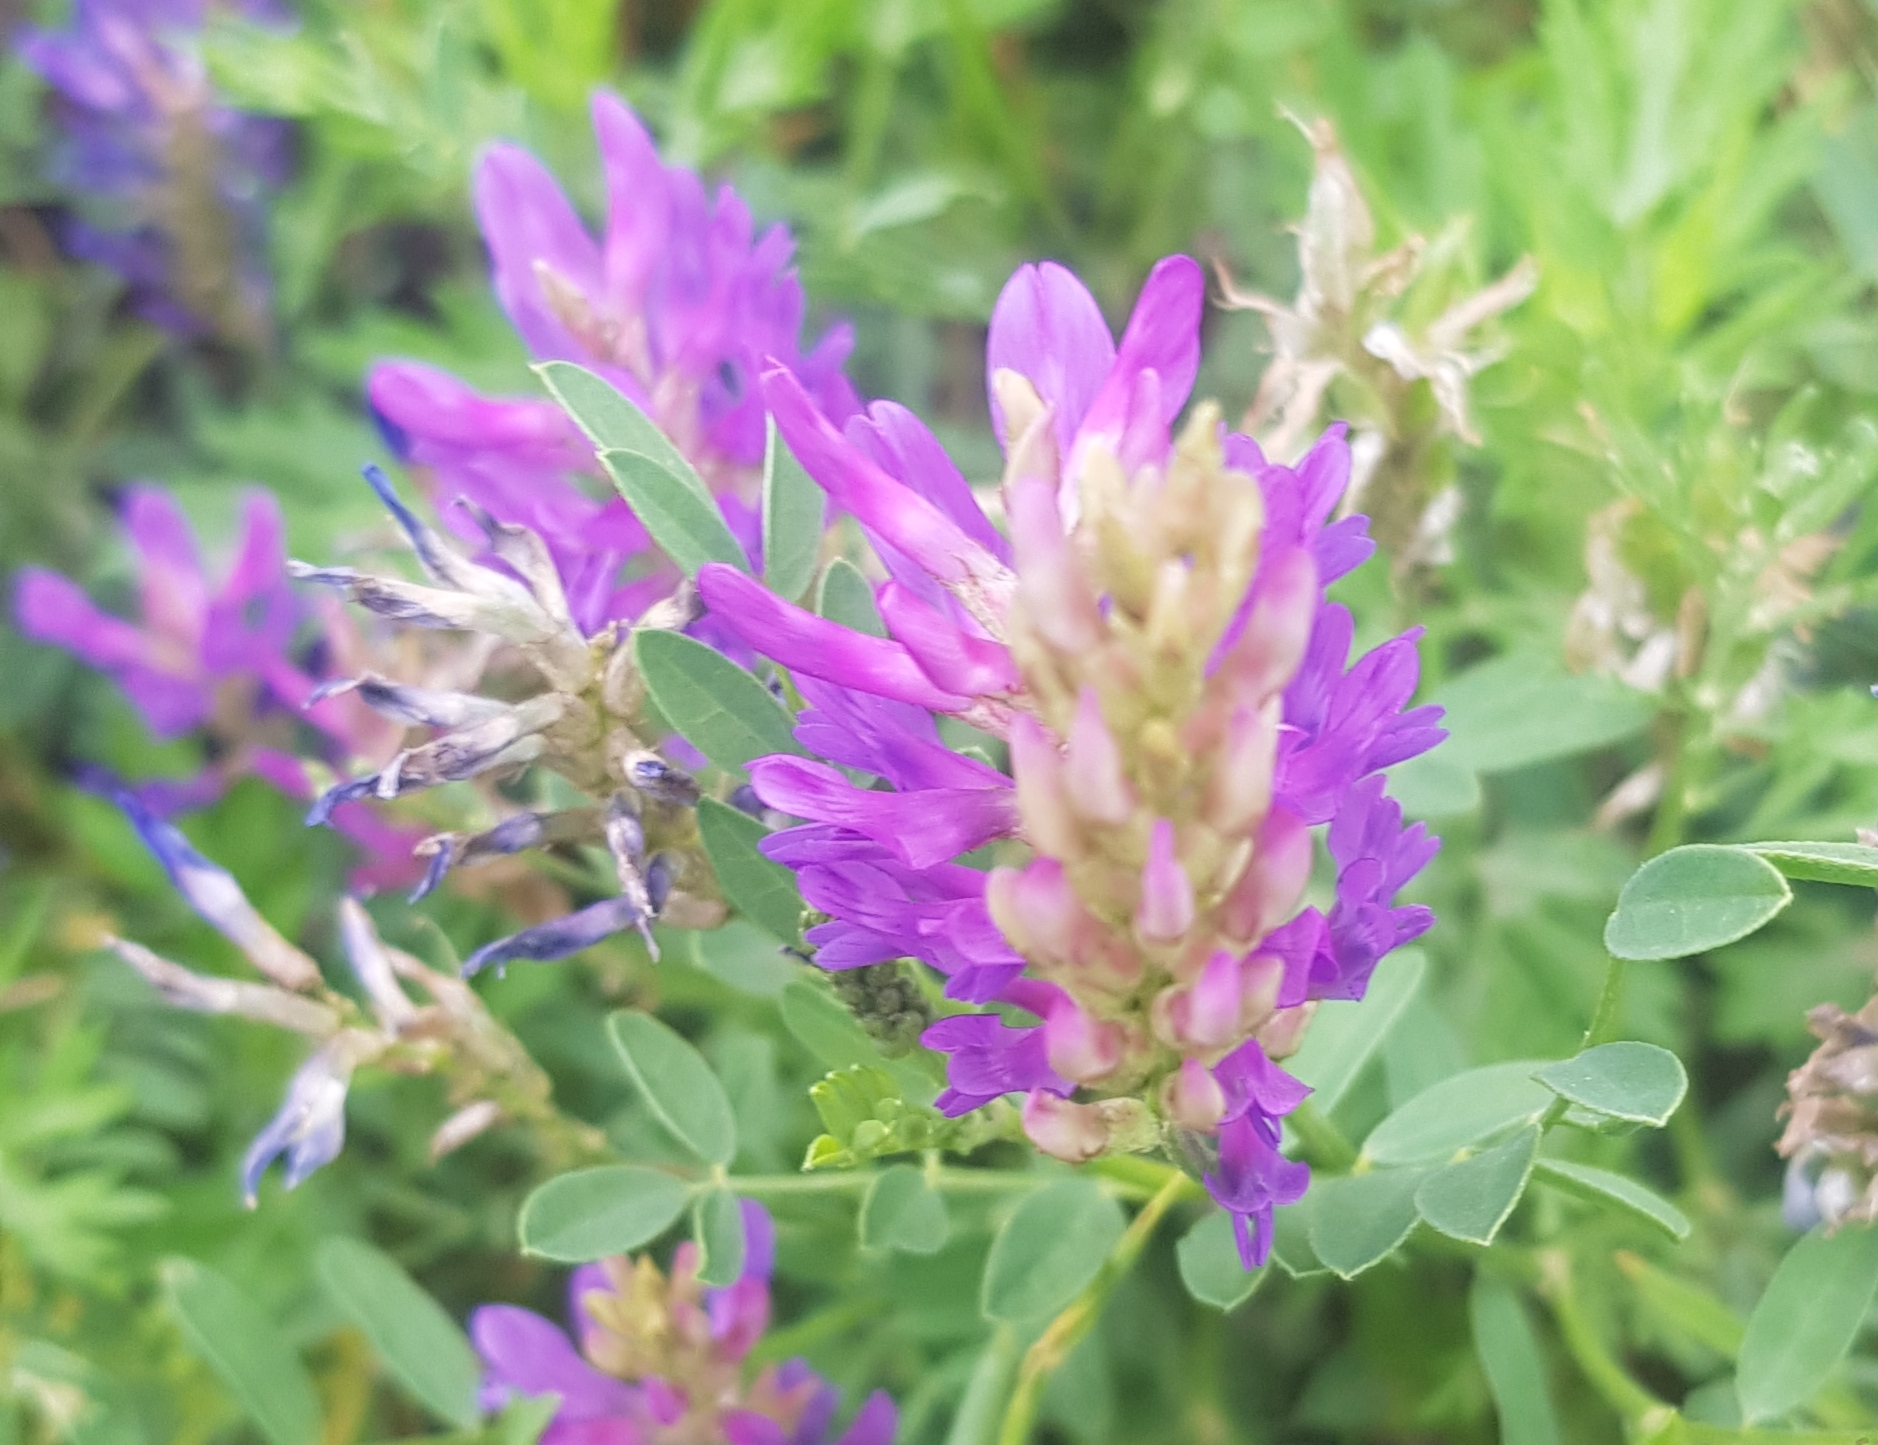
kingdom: Plantae
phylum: Tracheophyta
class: Magnoliopsida
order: Fabales
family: Fabaceae
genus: Astragalus
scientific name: Astragalus danicus
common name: Purple milk-vetch
